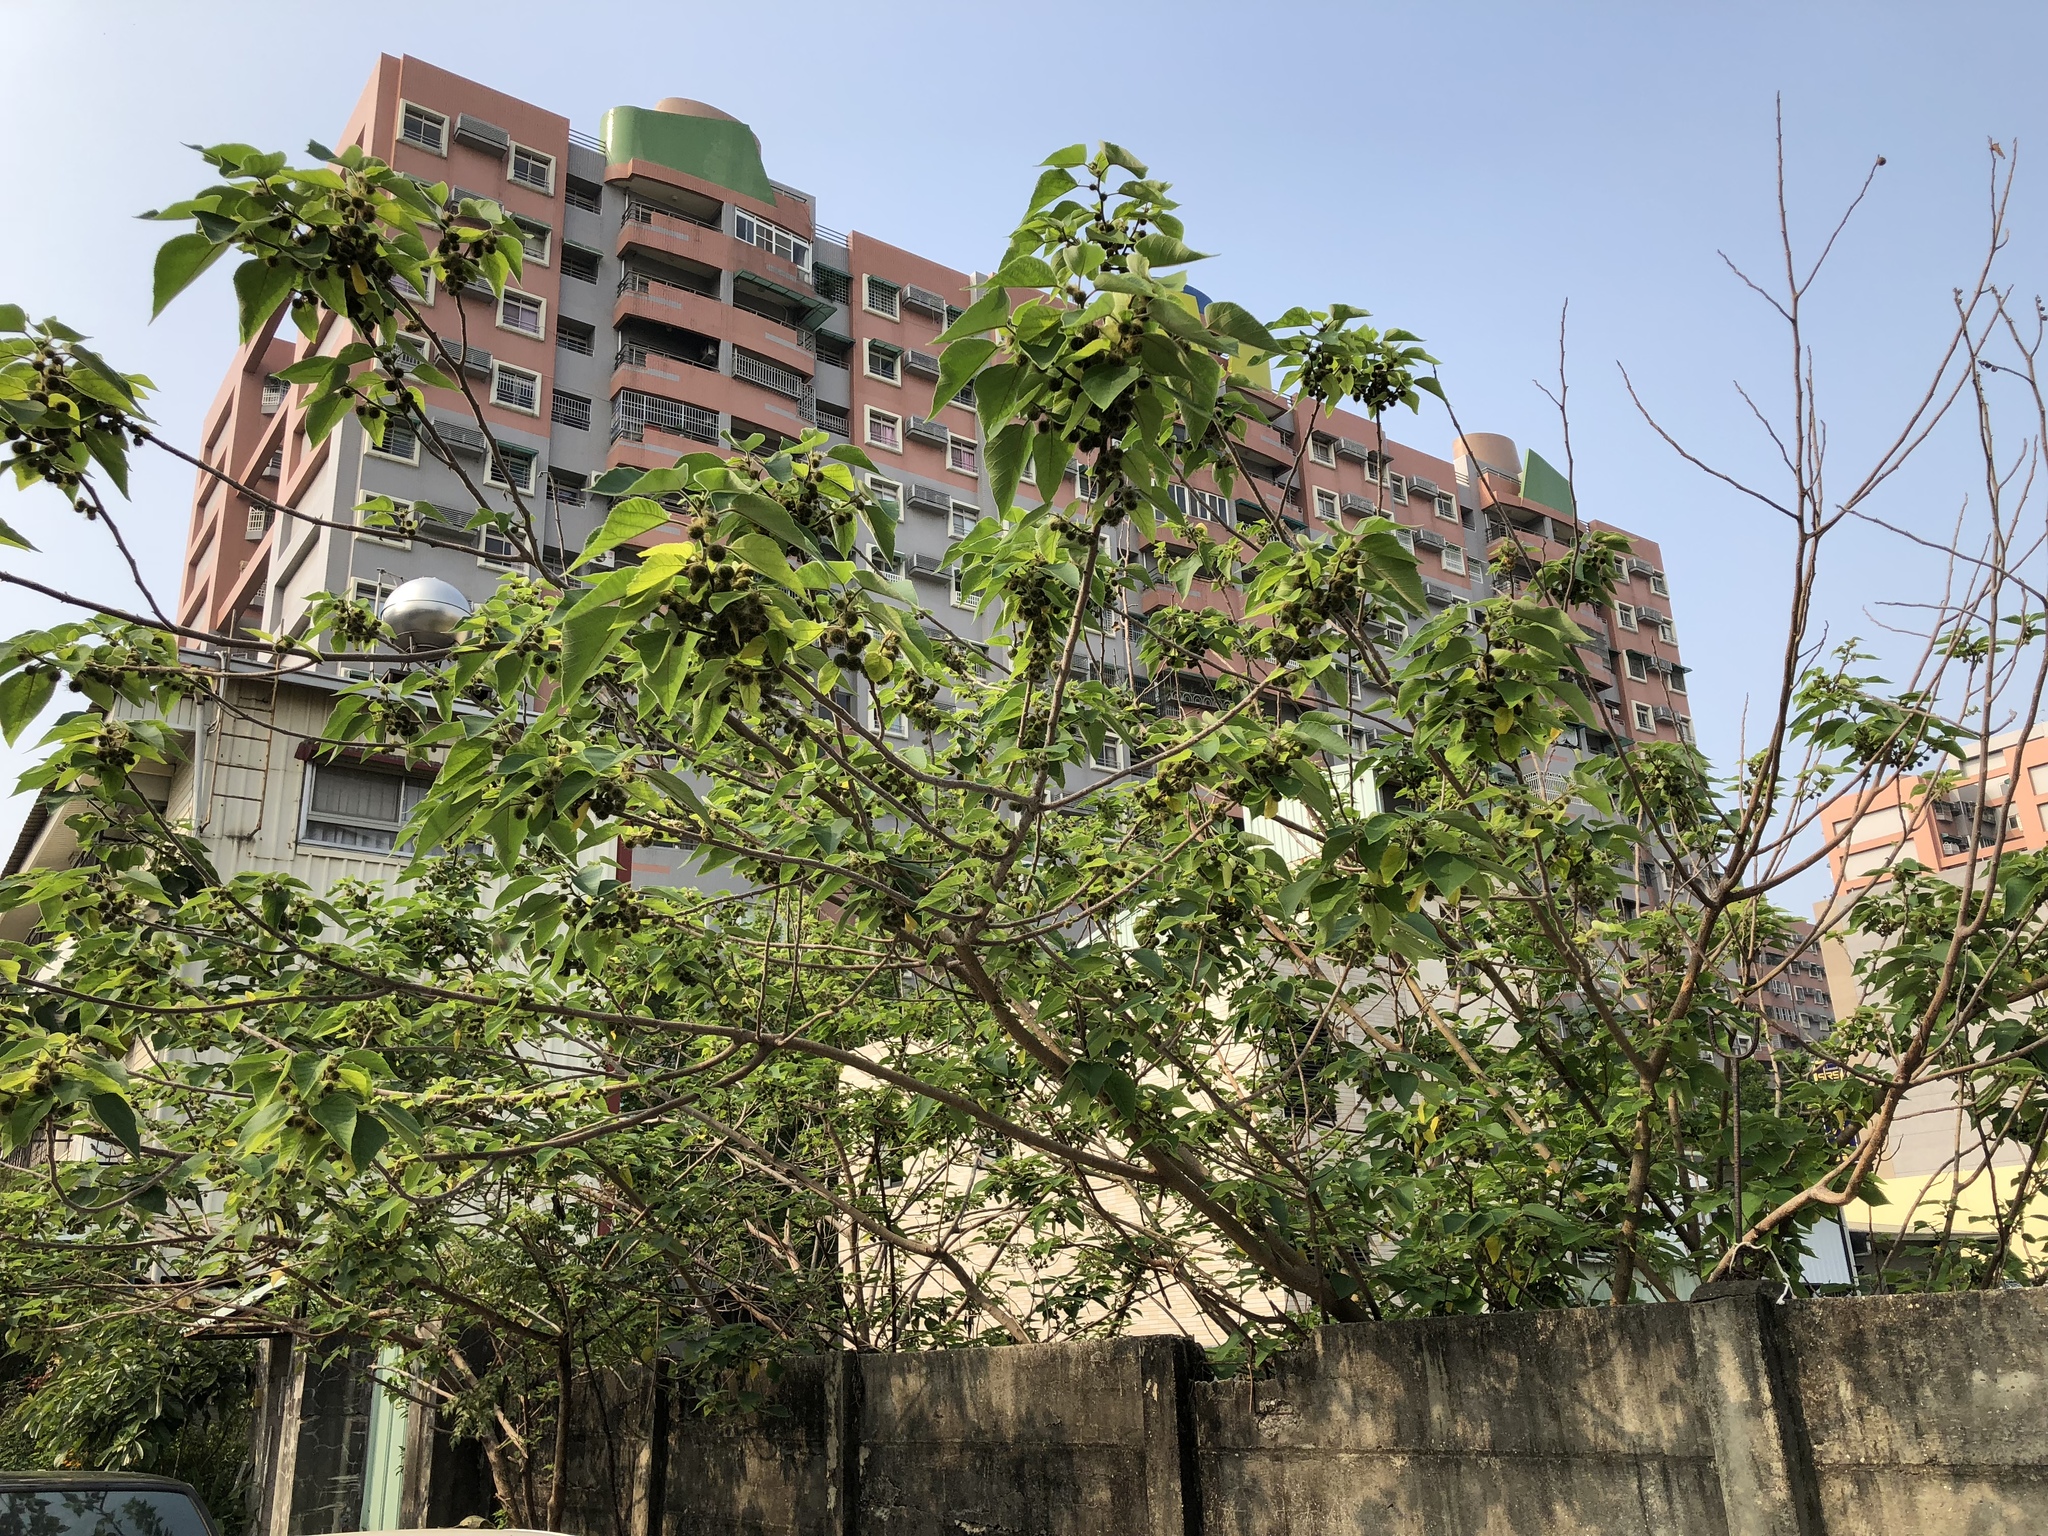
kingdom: Plantae
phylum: Tracheophyta
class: Magnoliopsida
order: Rosales
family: Moraceae
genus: Broussonetia
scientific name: Broussonetia papyrifera
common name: Paper mulberry
